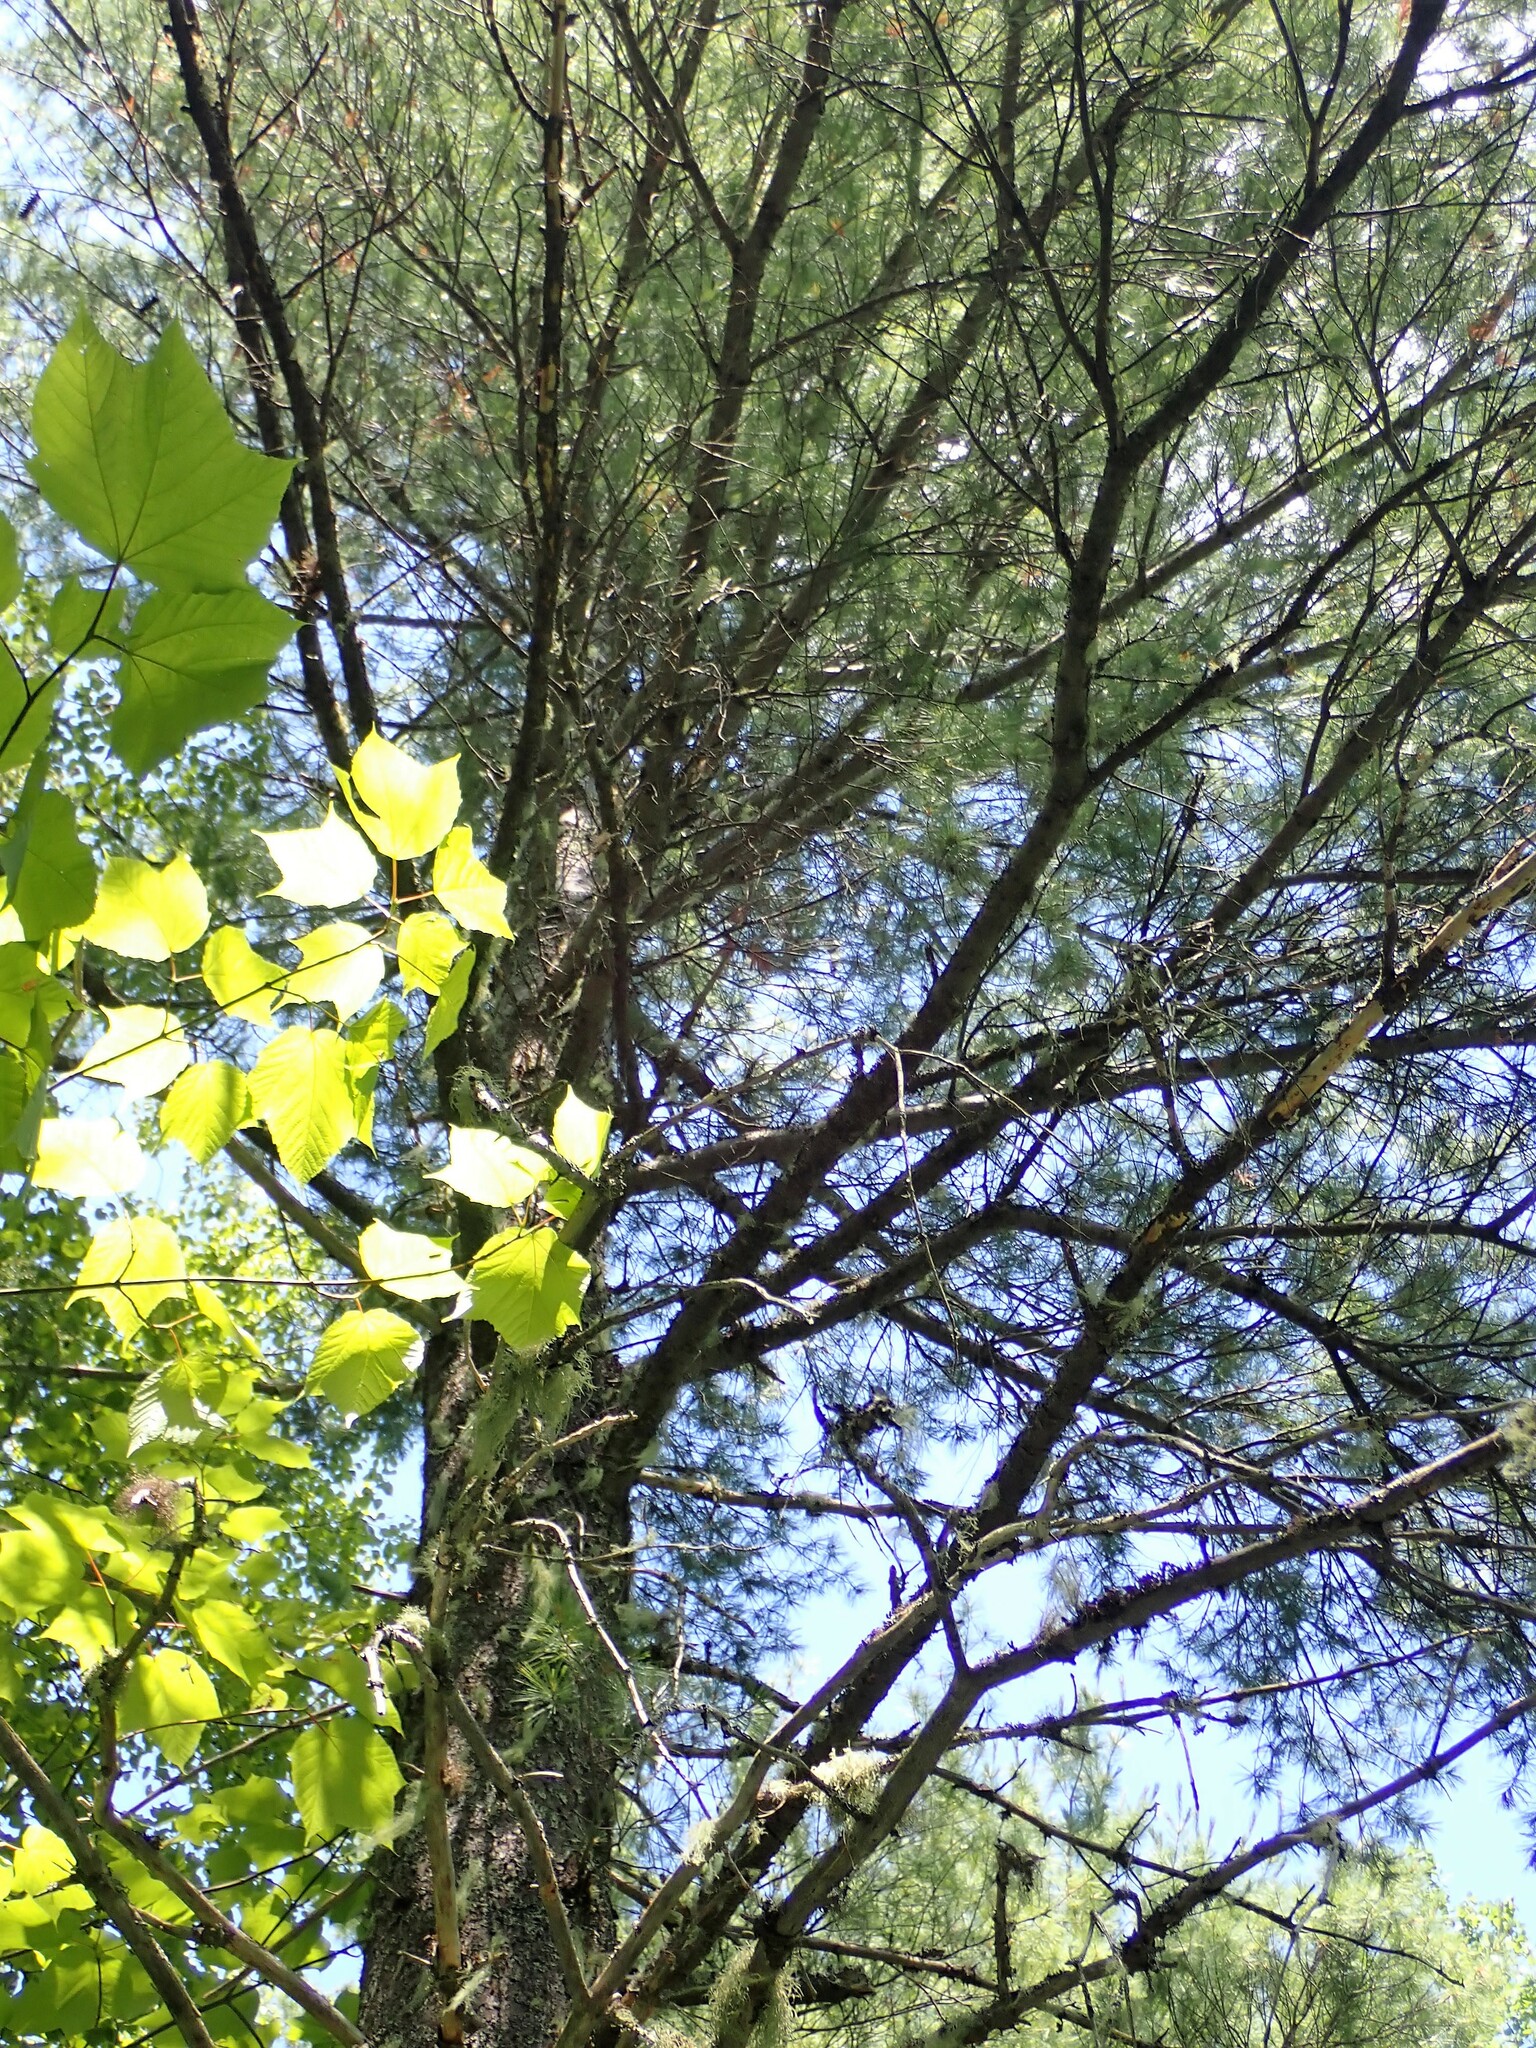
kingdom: Plantae
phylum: Tracheophyta
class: Pinopsida
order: Pinales
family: Pinaceae
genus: Pinus
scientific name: Pinus strobus
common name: Weymouth pine
